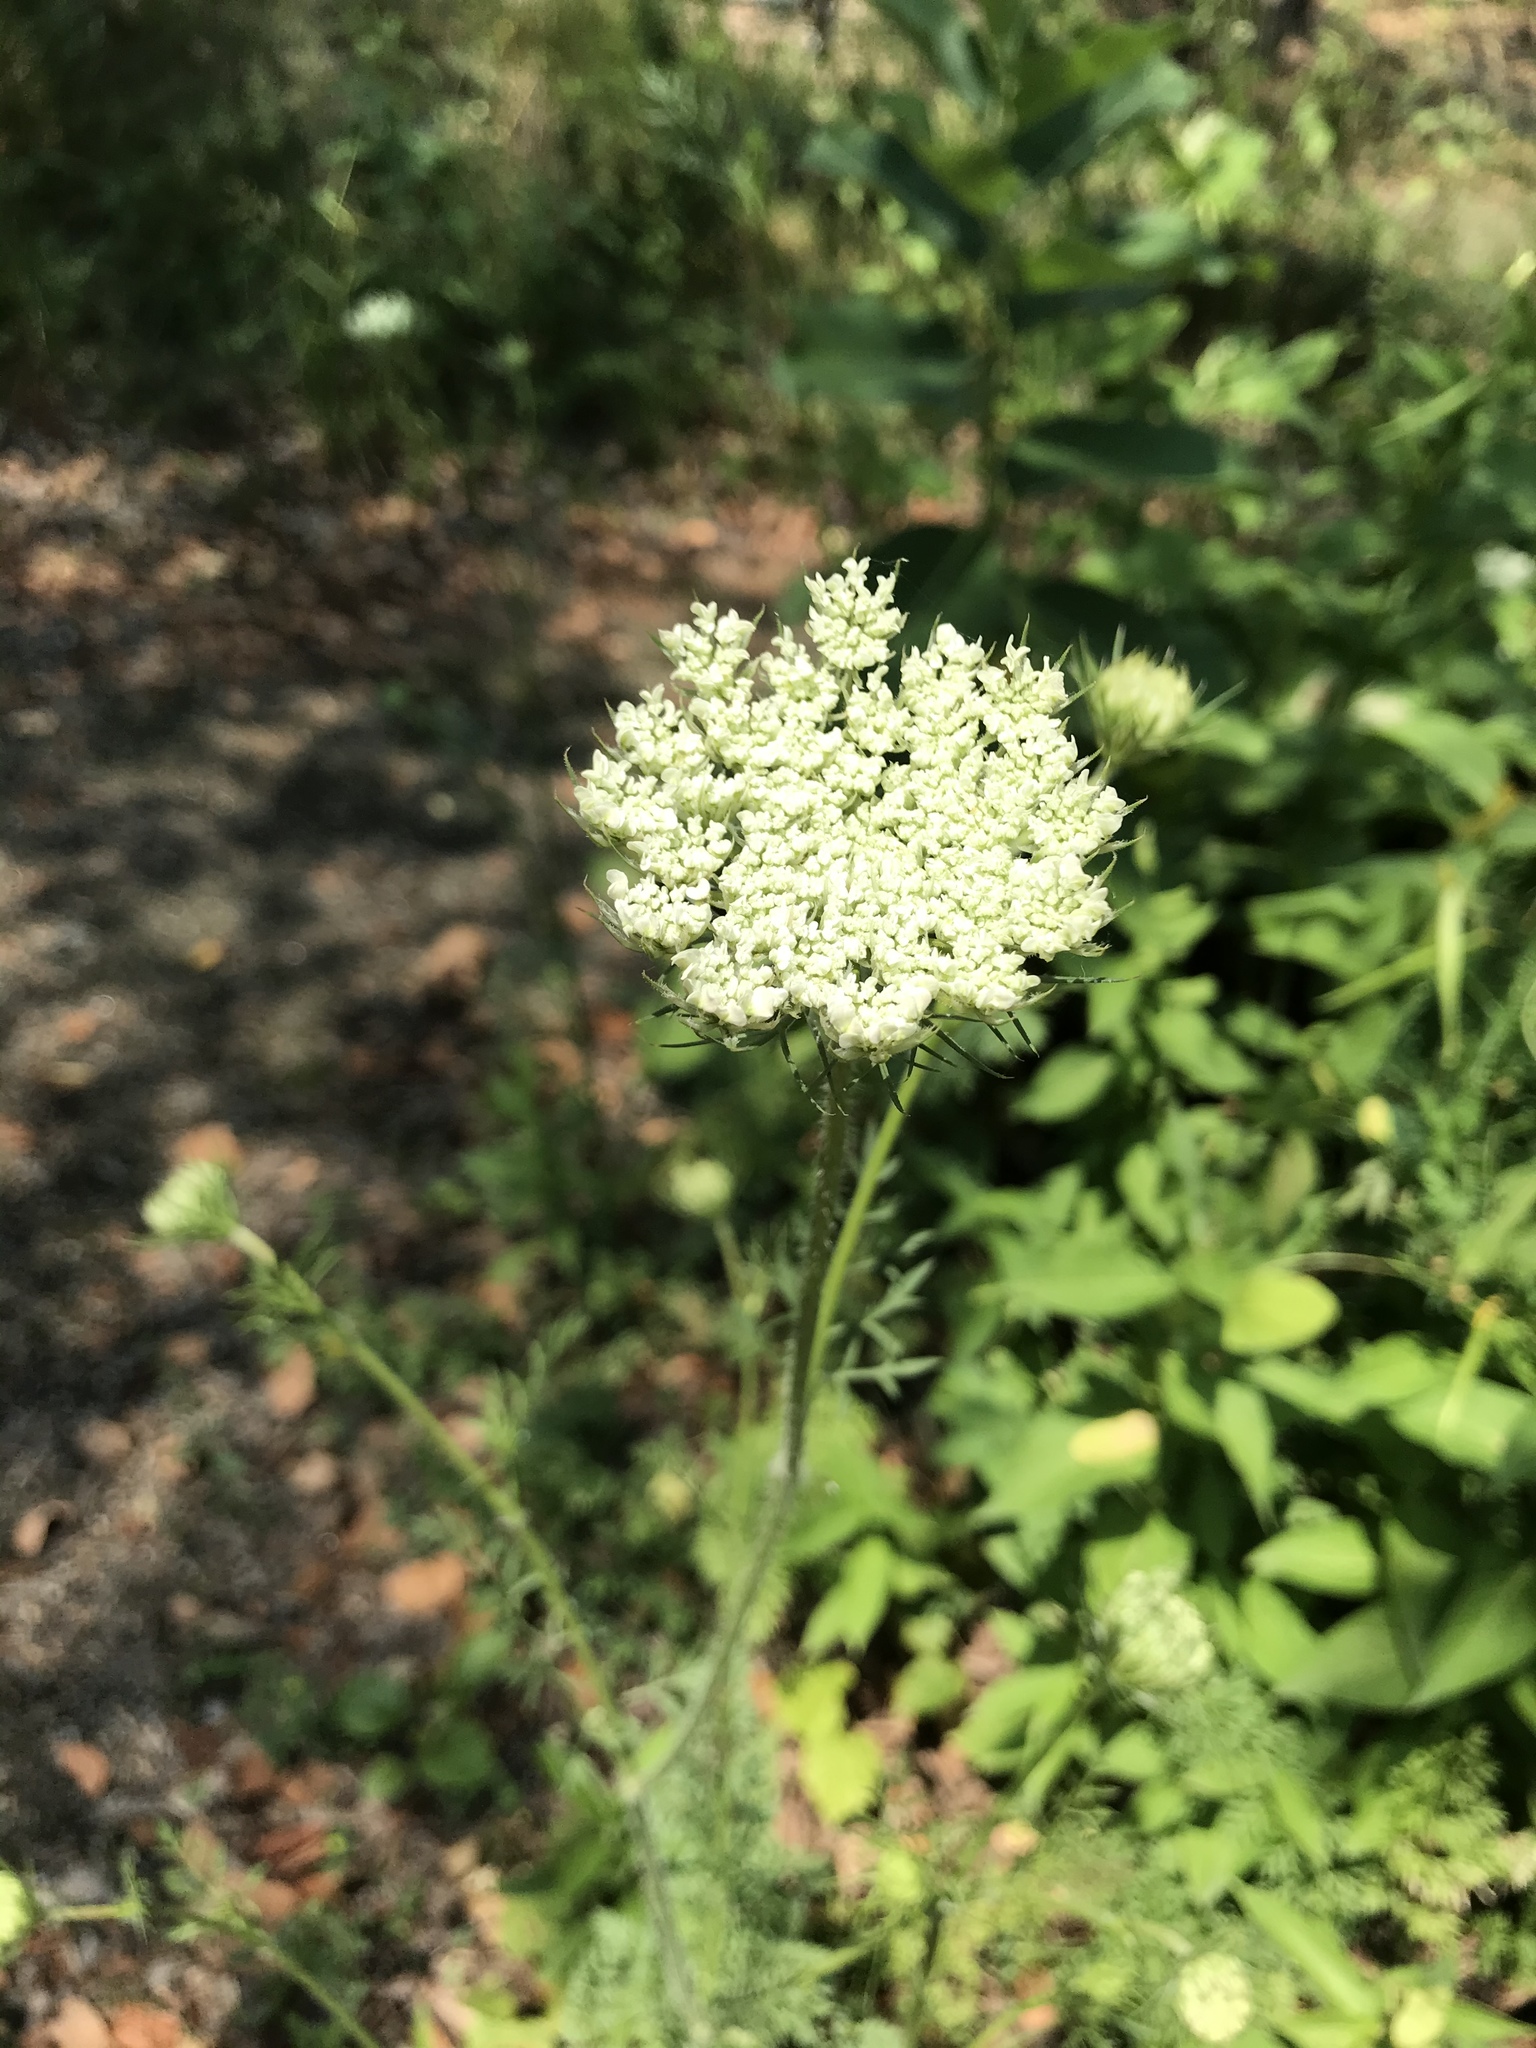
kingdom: Plantae
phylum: Tracheophyta
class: Magnoliopsida
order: Apiales
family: Apiaceae
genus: Daucus
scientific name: Daucus carota
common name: Wild carrot
